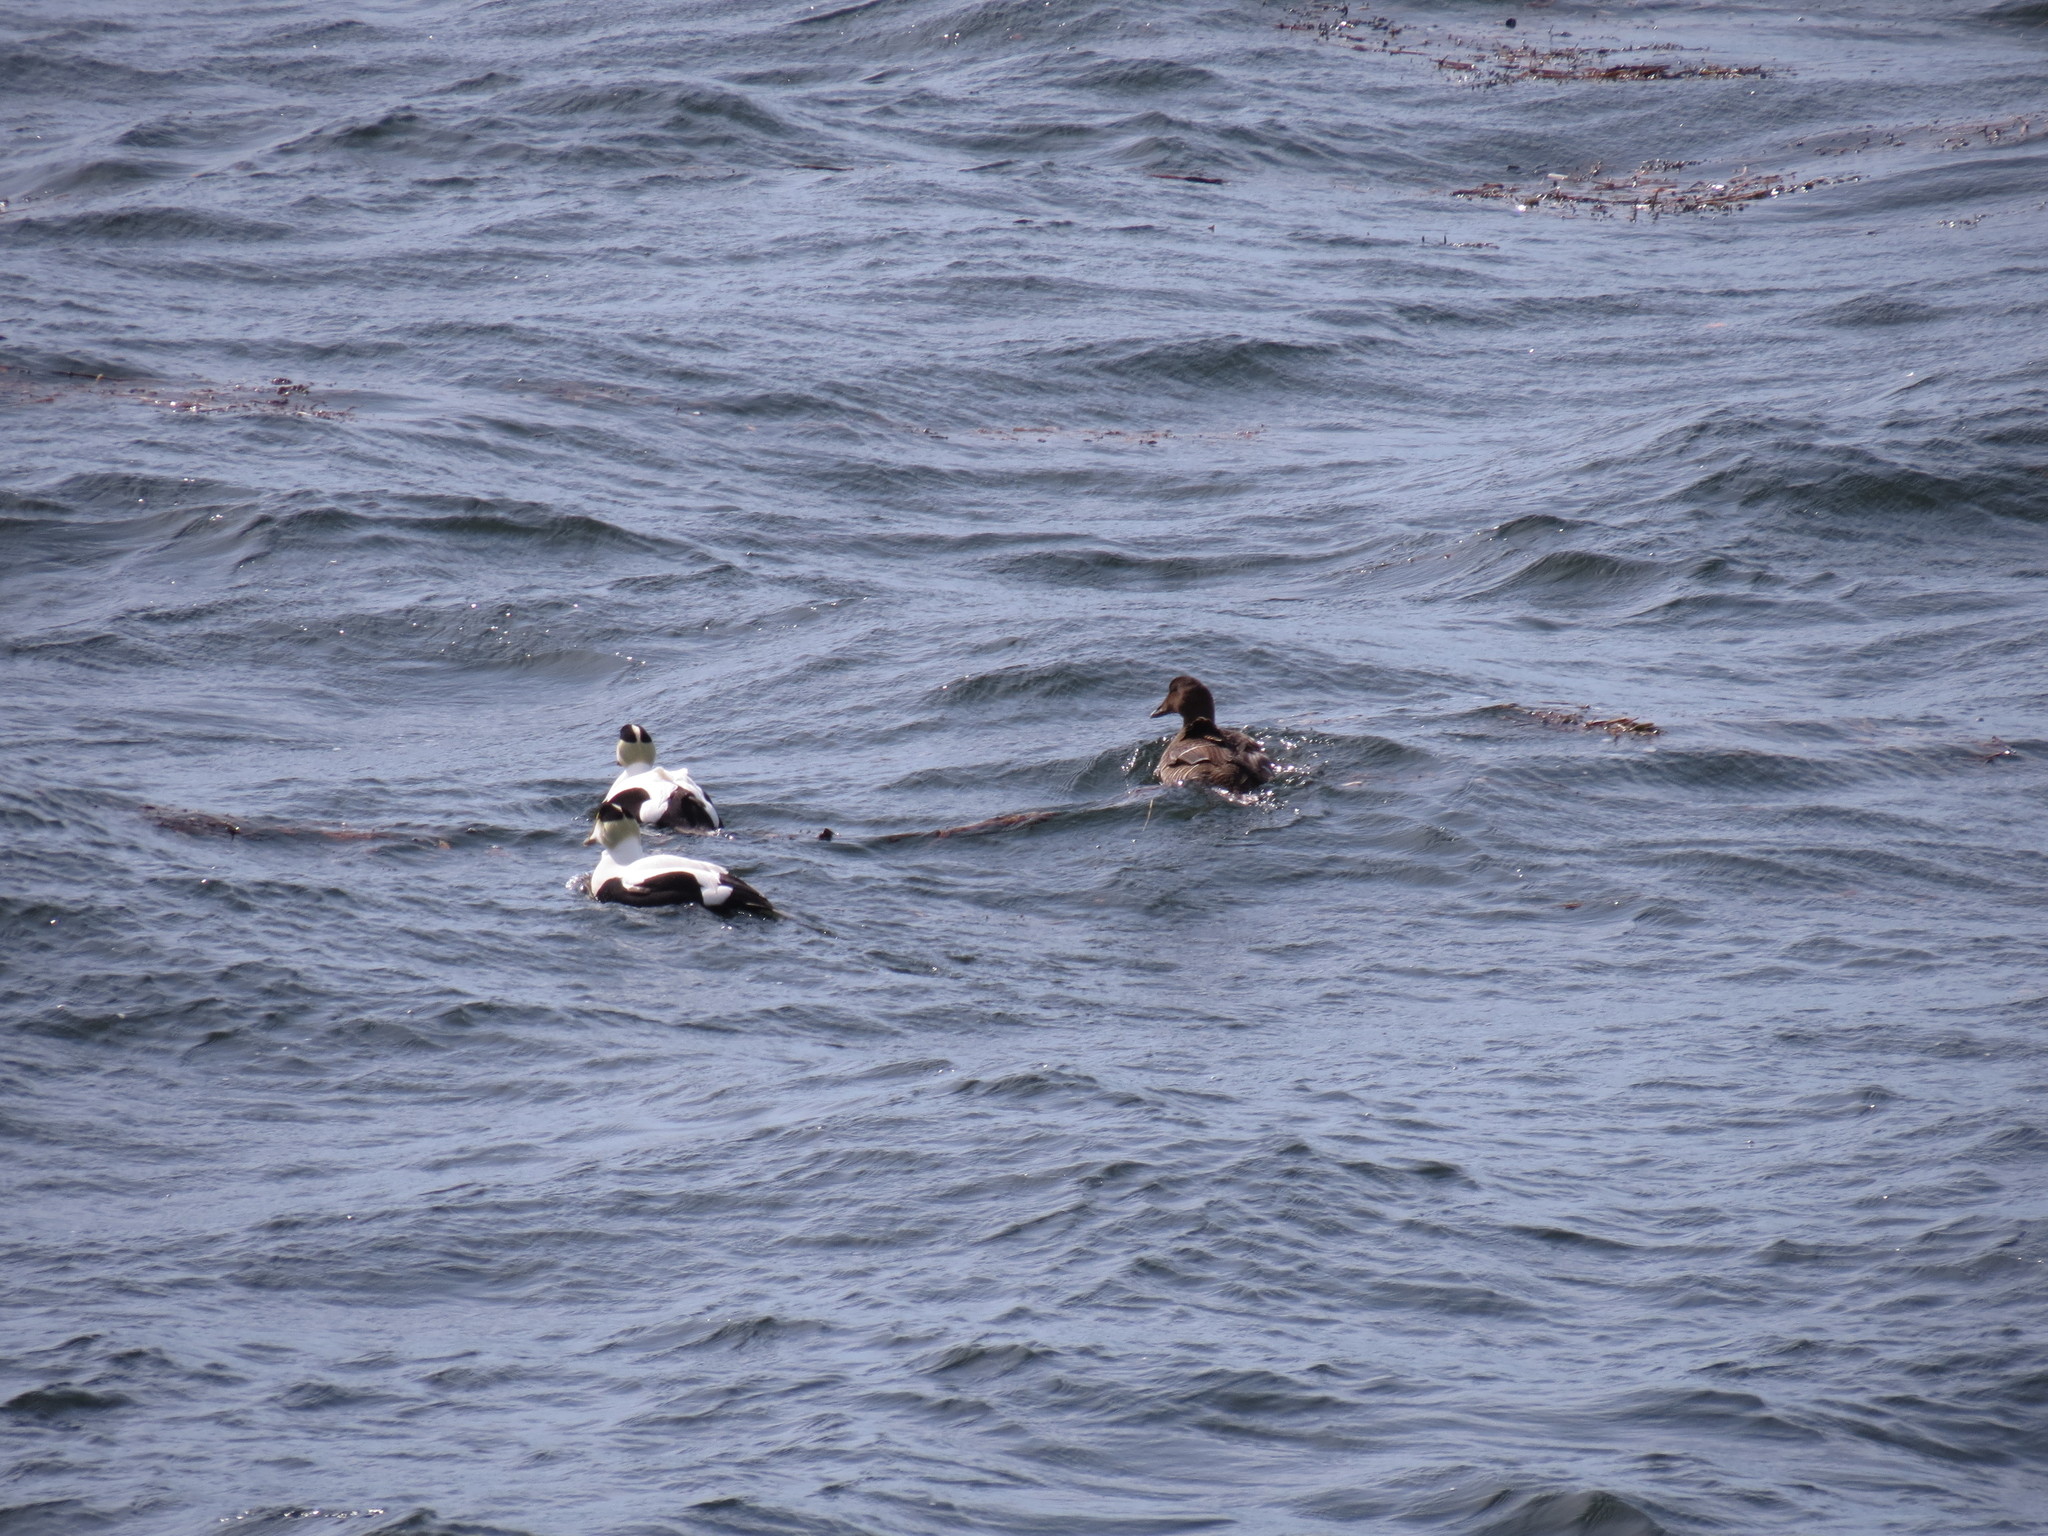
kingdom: Animalia
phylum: Chordata
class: Aves
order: Anseriformes
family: Anatidae
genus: Somateria
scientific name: Somateria mollissima
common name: Common eider
